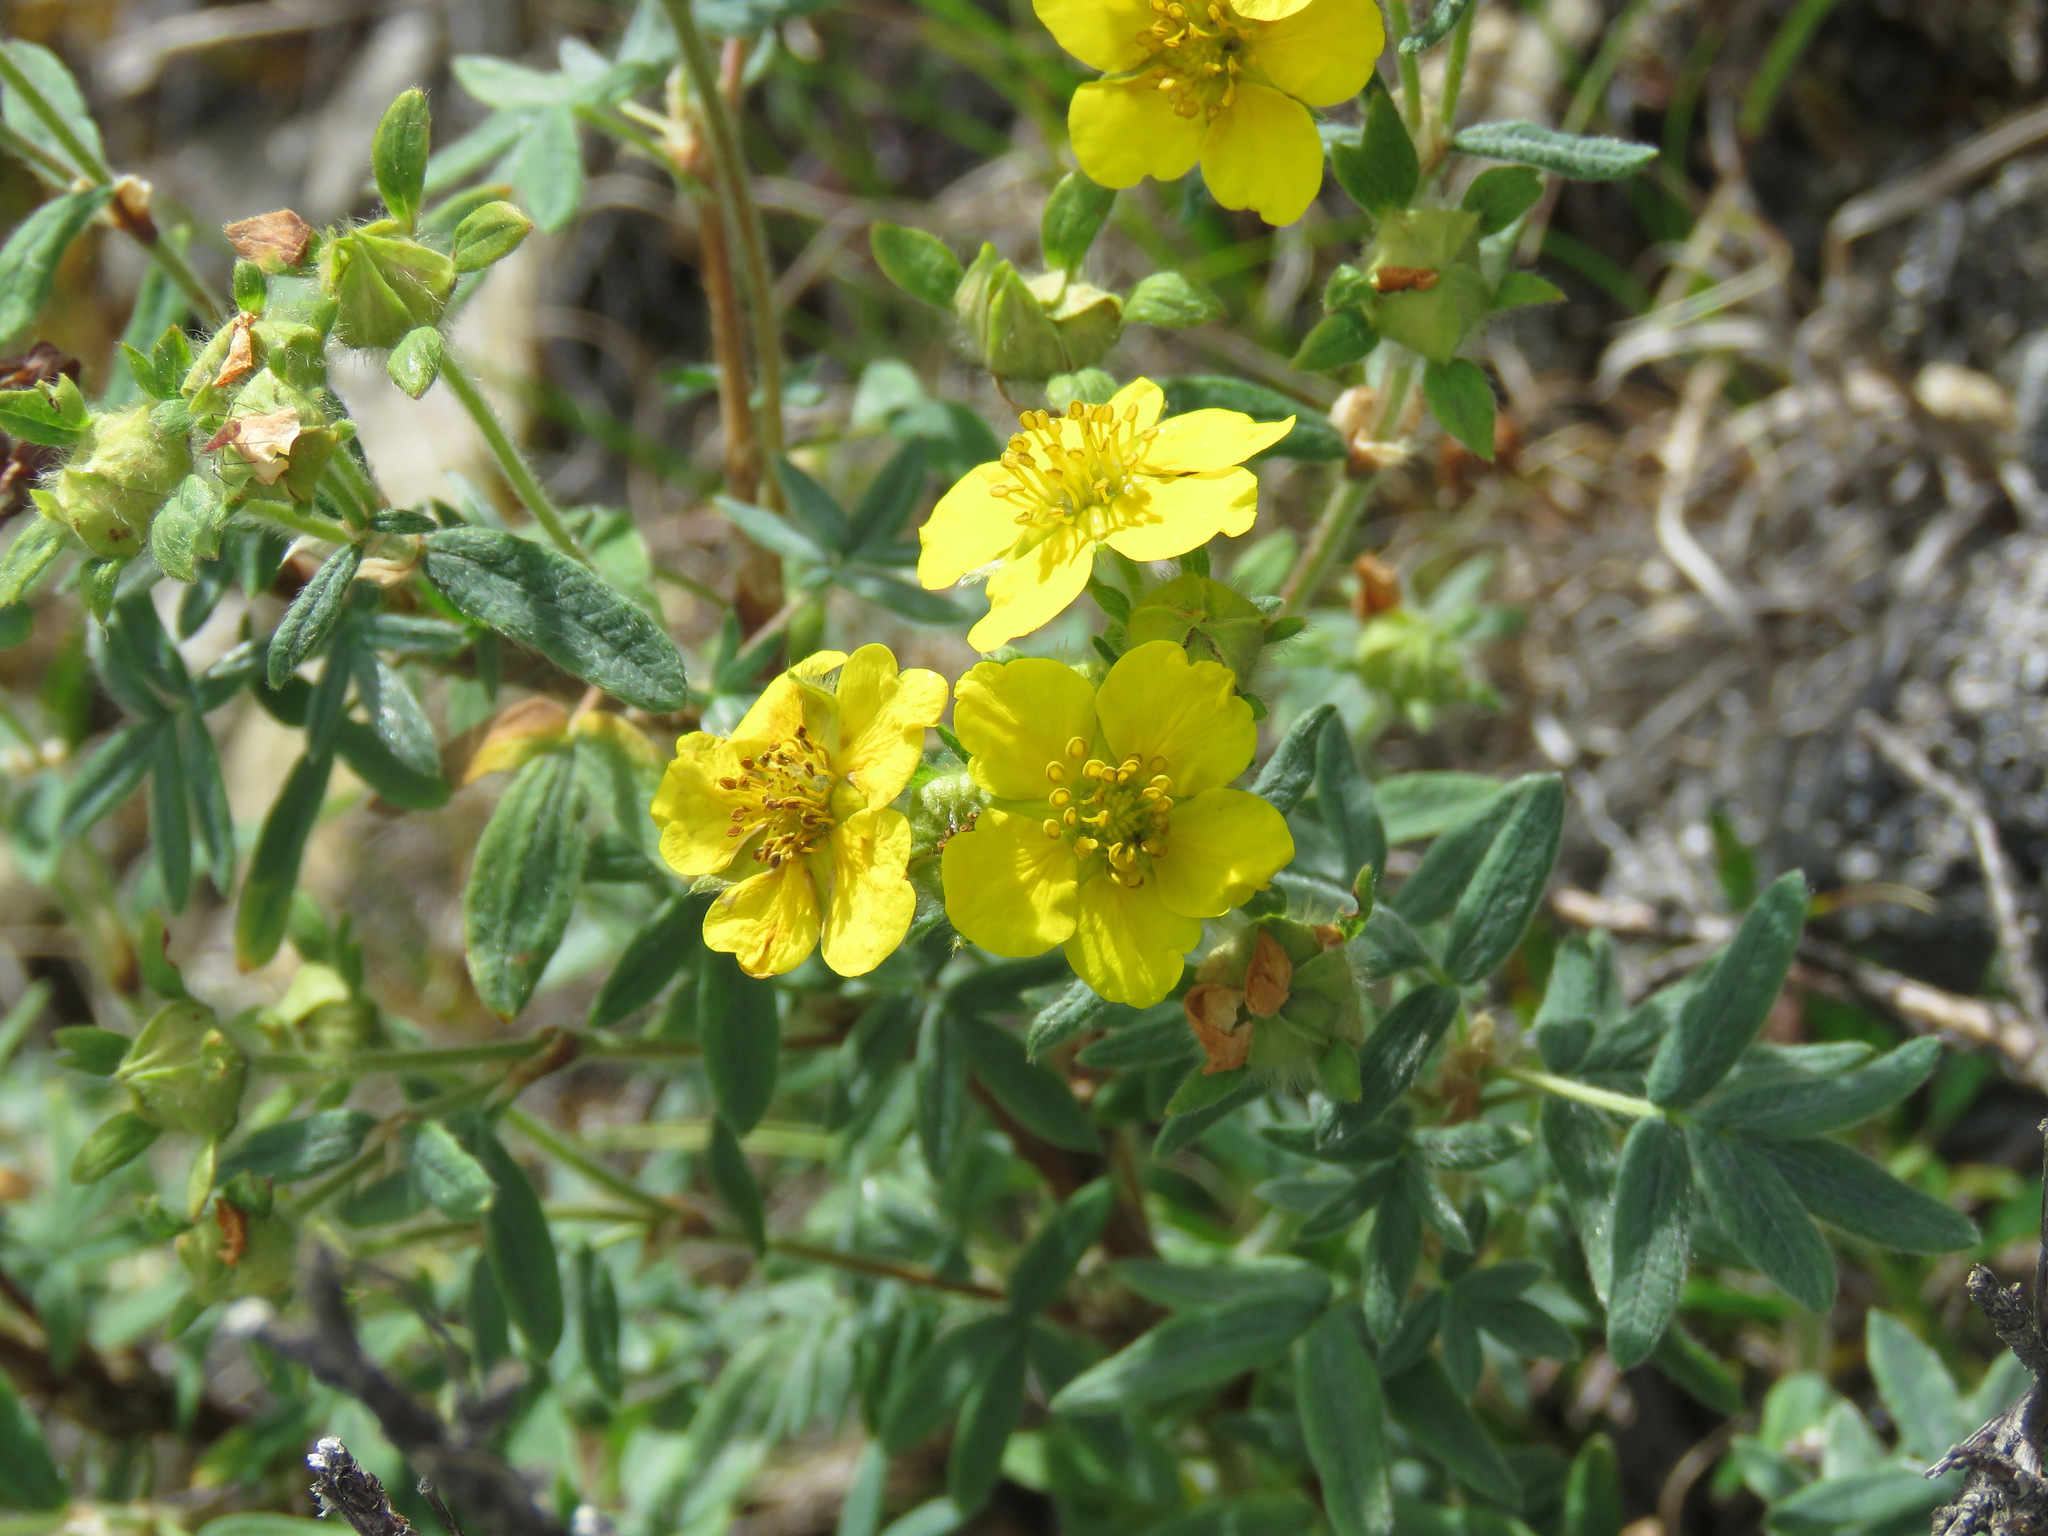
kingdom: Plantae
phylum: Tracheophyta
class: Magnoliopsida
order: Rosales
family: Rosaceae
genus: Dasiphora
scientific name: Dasiphora fruticosa
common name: Shrubby cinquefoil
